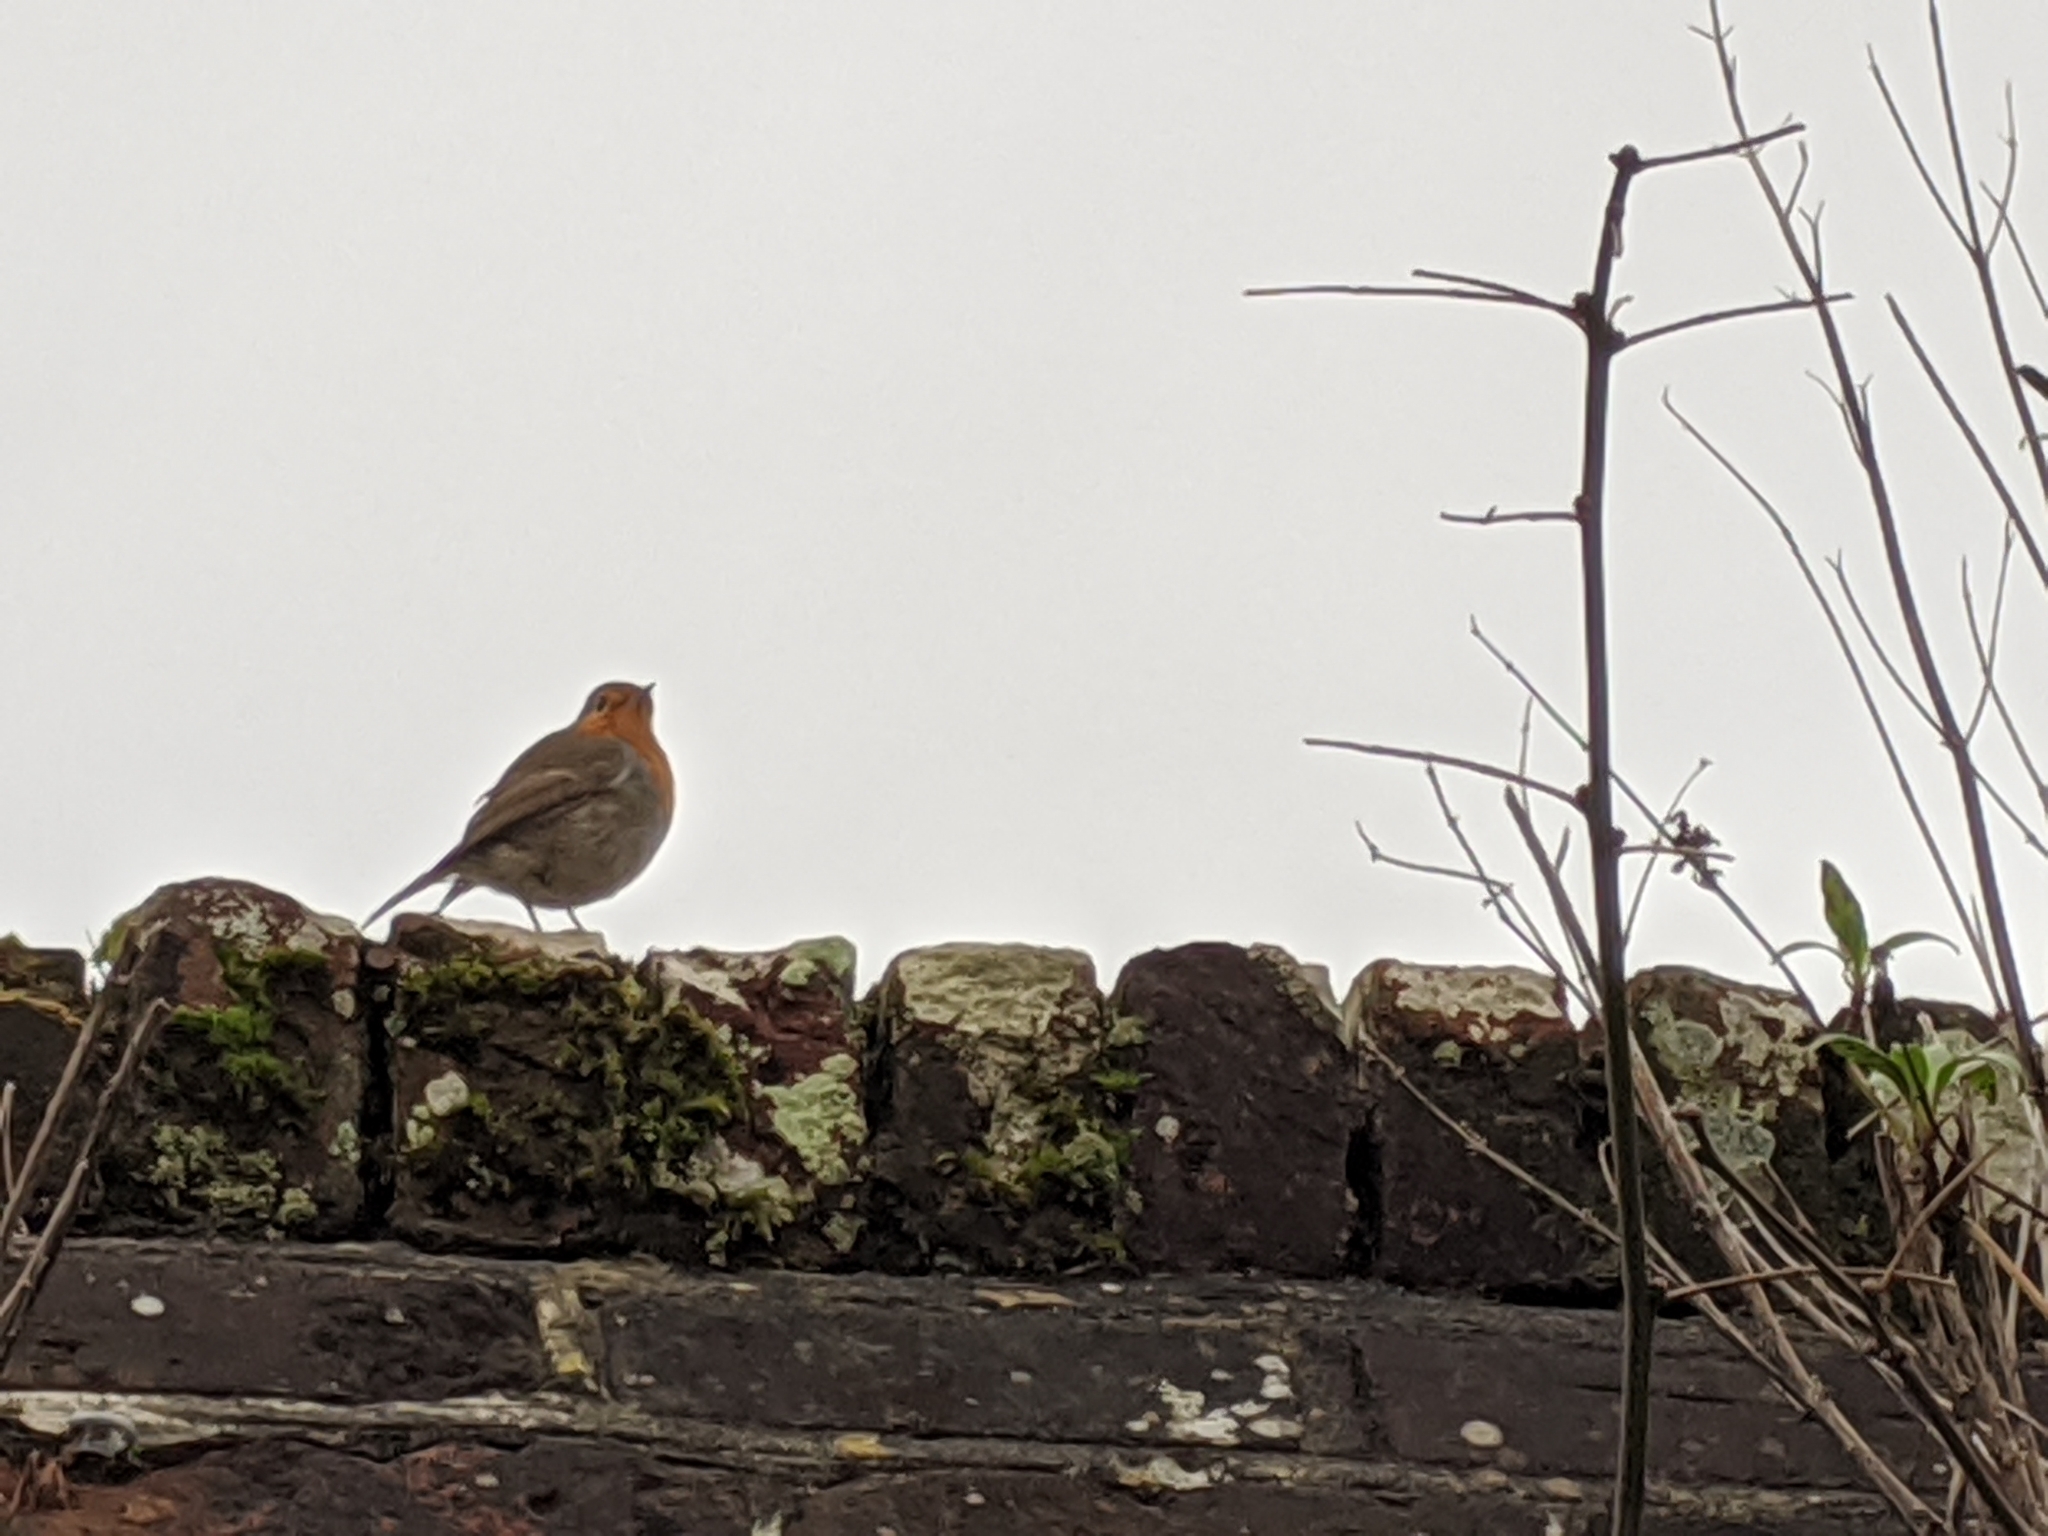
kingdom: Animalia
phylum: Chordata
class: Aves
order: Passeriformes
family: Muscicapidae
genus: Erithacus
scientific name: Erithacus rubecula
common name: European robin
